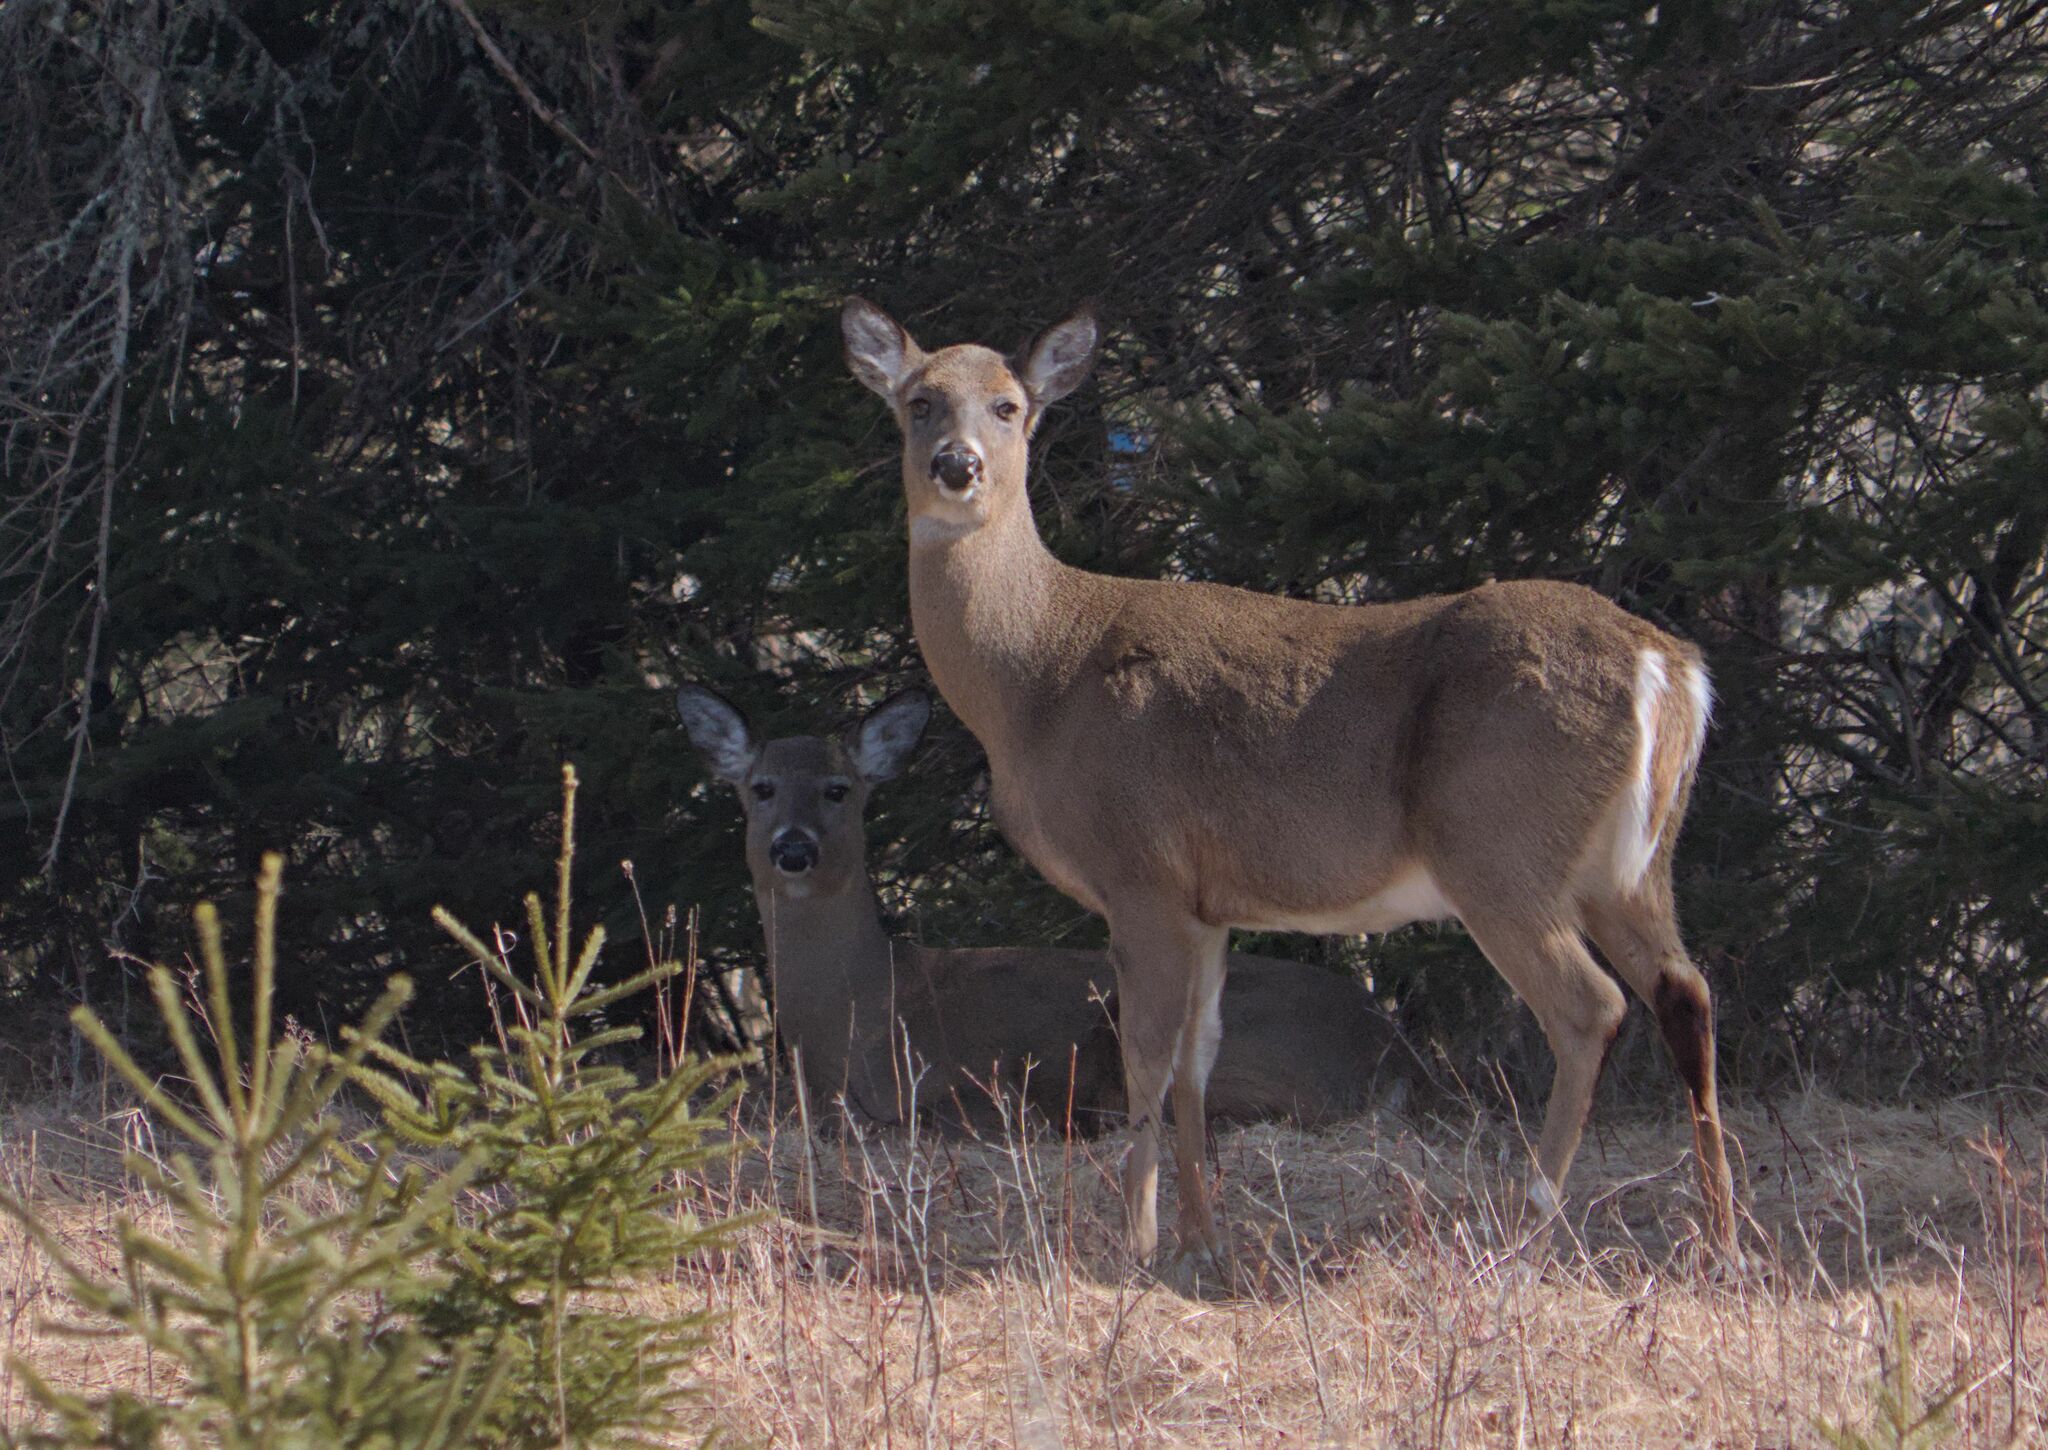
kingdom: Animalia
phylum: Chordata
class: Mammalia
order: Artiodactyla
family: Cervidae
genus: Odocoileus
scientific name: Odocoileus virginianus
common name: White-tailed deer
